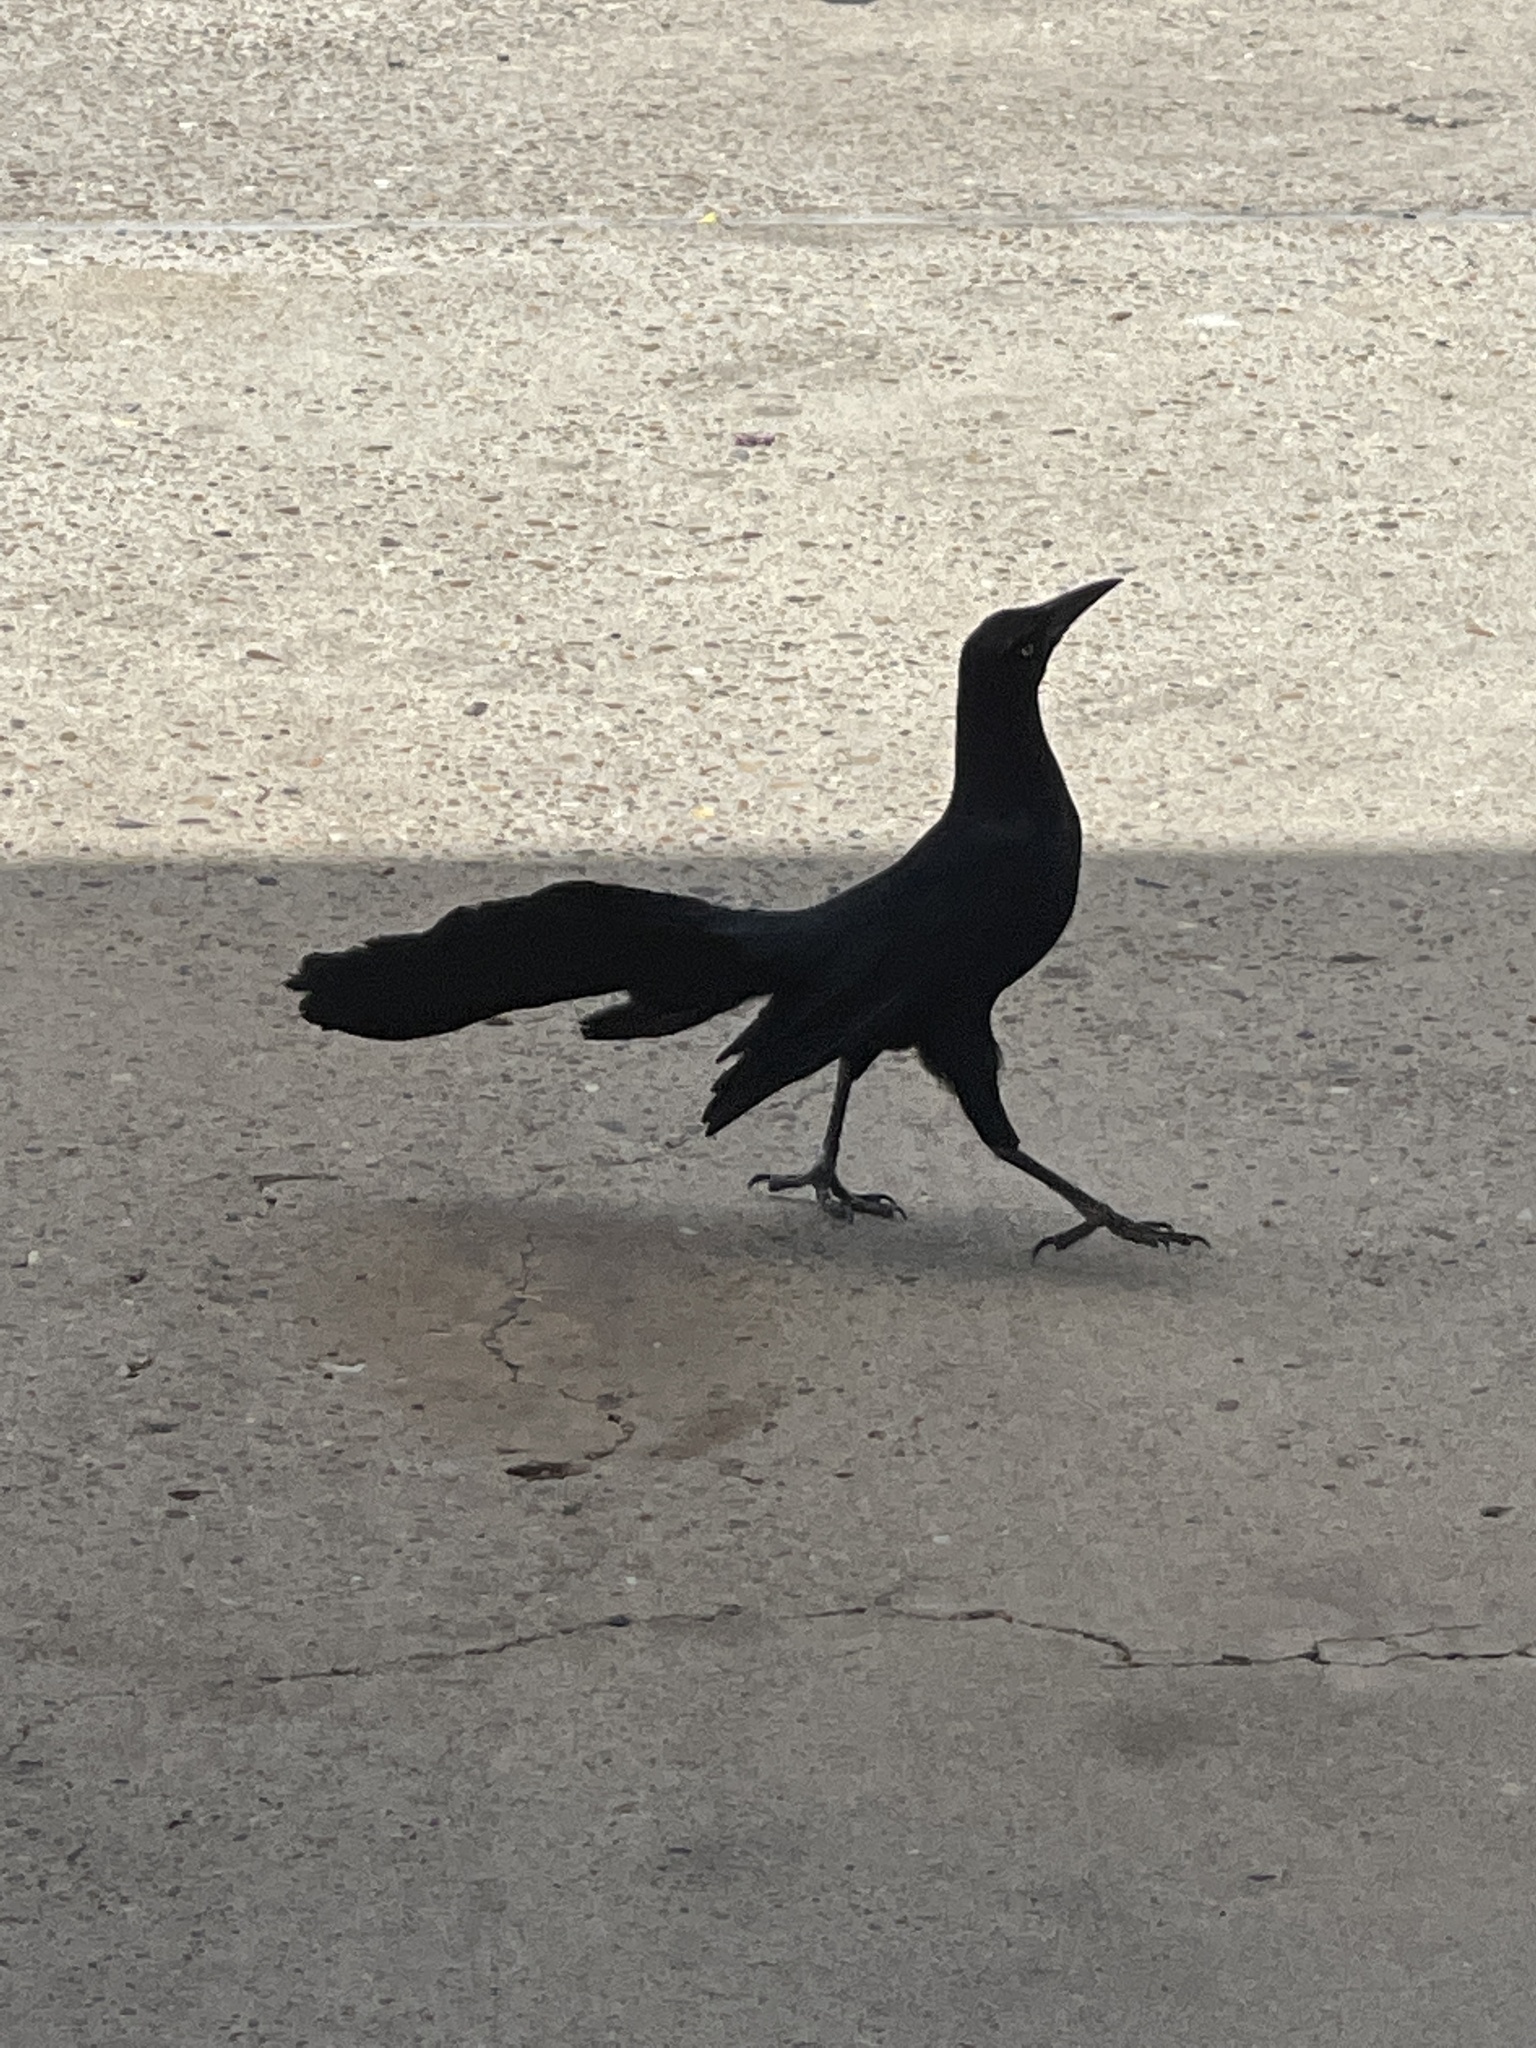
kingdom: Animalia
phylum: Chordata
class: Aves
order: Passeriformes
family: Icteridae
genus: Quiscalus
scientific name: Quiscalus mexicanus
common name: Great-tailed grackle
